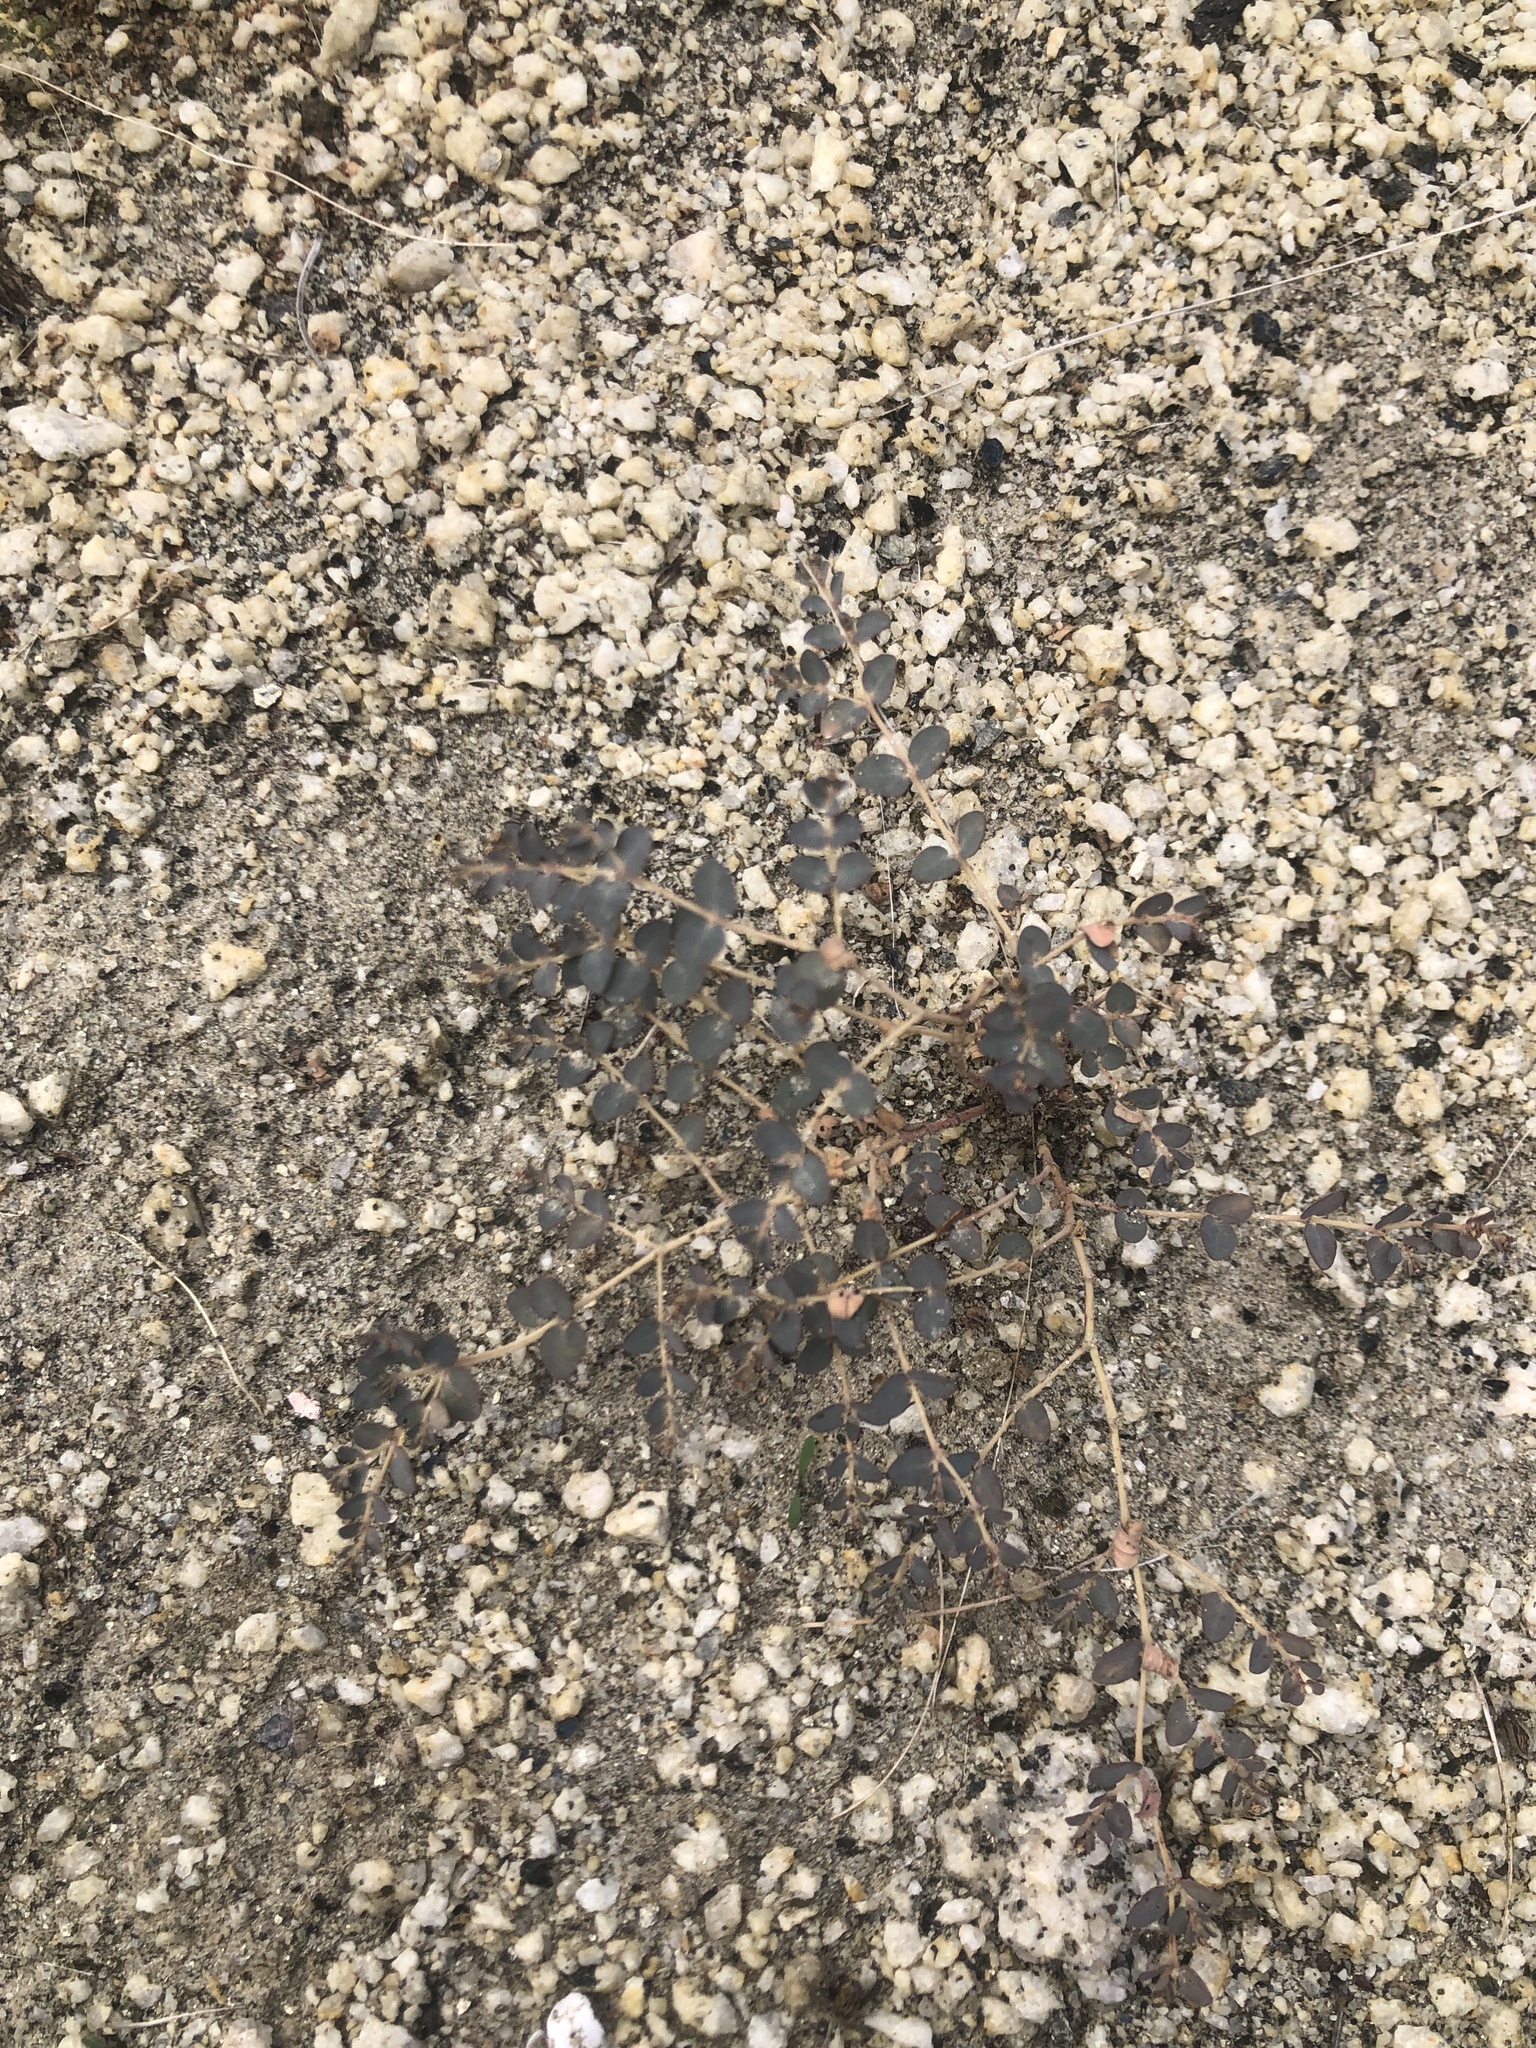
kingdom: Plantae
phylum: Tracheophyta
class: Magnoliopsida
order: Malpighiales
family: Euphorbiaceae
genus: Euphorbia
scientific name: Euphorbia polycarpa
